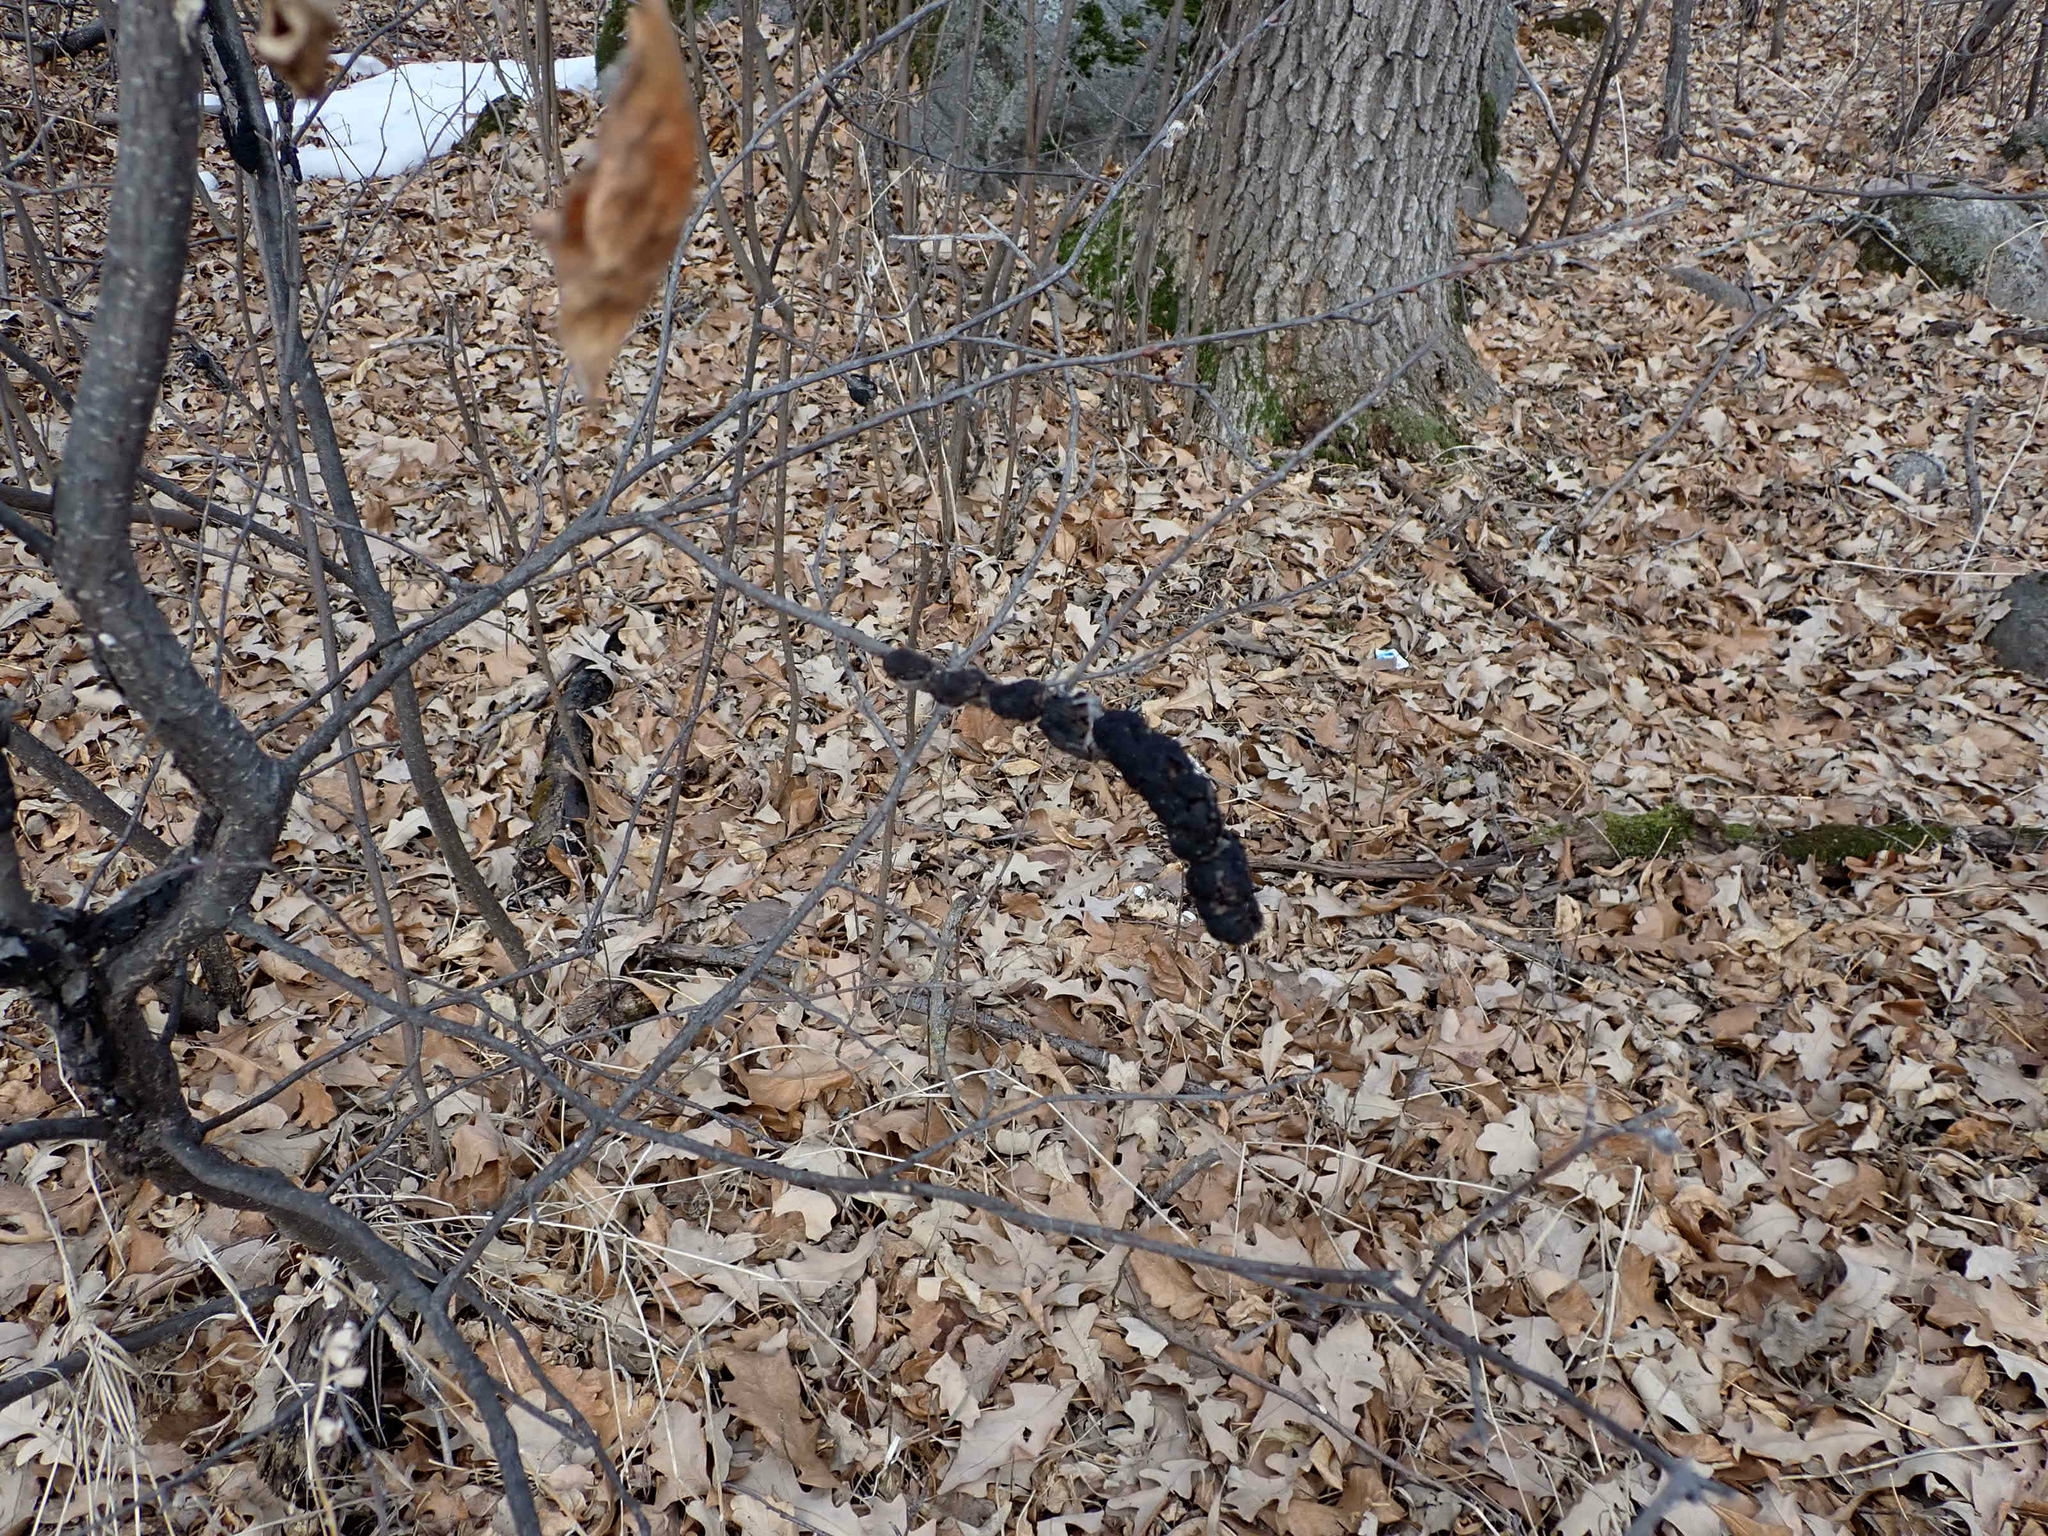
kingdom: Fungi
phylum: Ascomycota
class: Dothideomycetes
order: Venturiales
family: Venturiaceae
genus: Apiosporina
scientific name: Apiosporina morbosa
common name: Black knot
